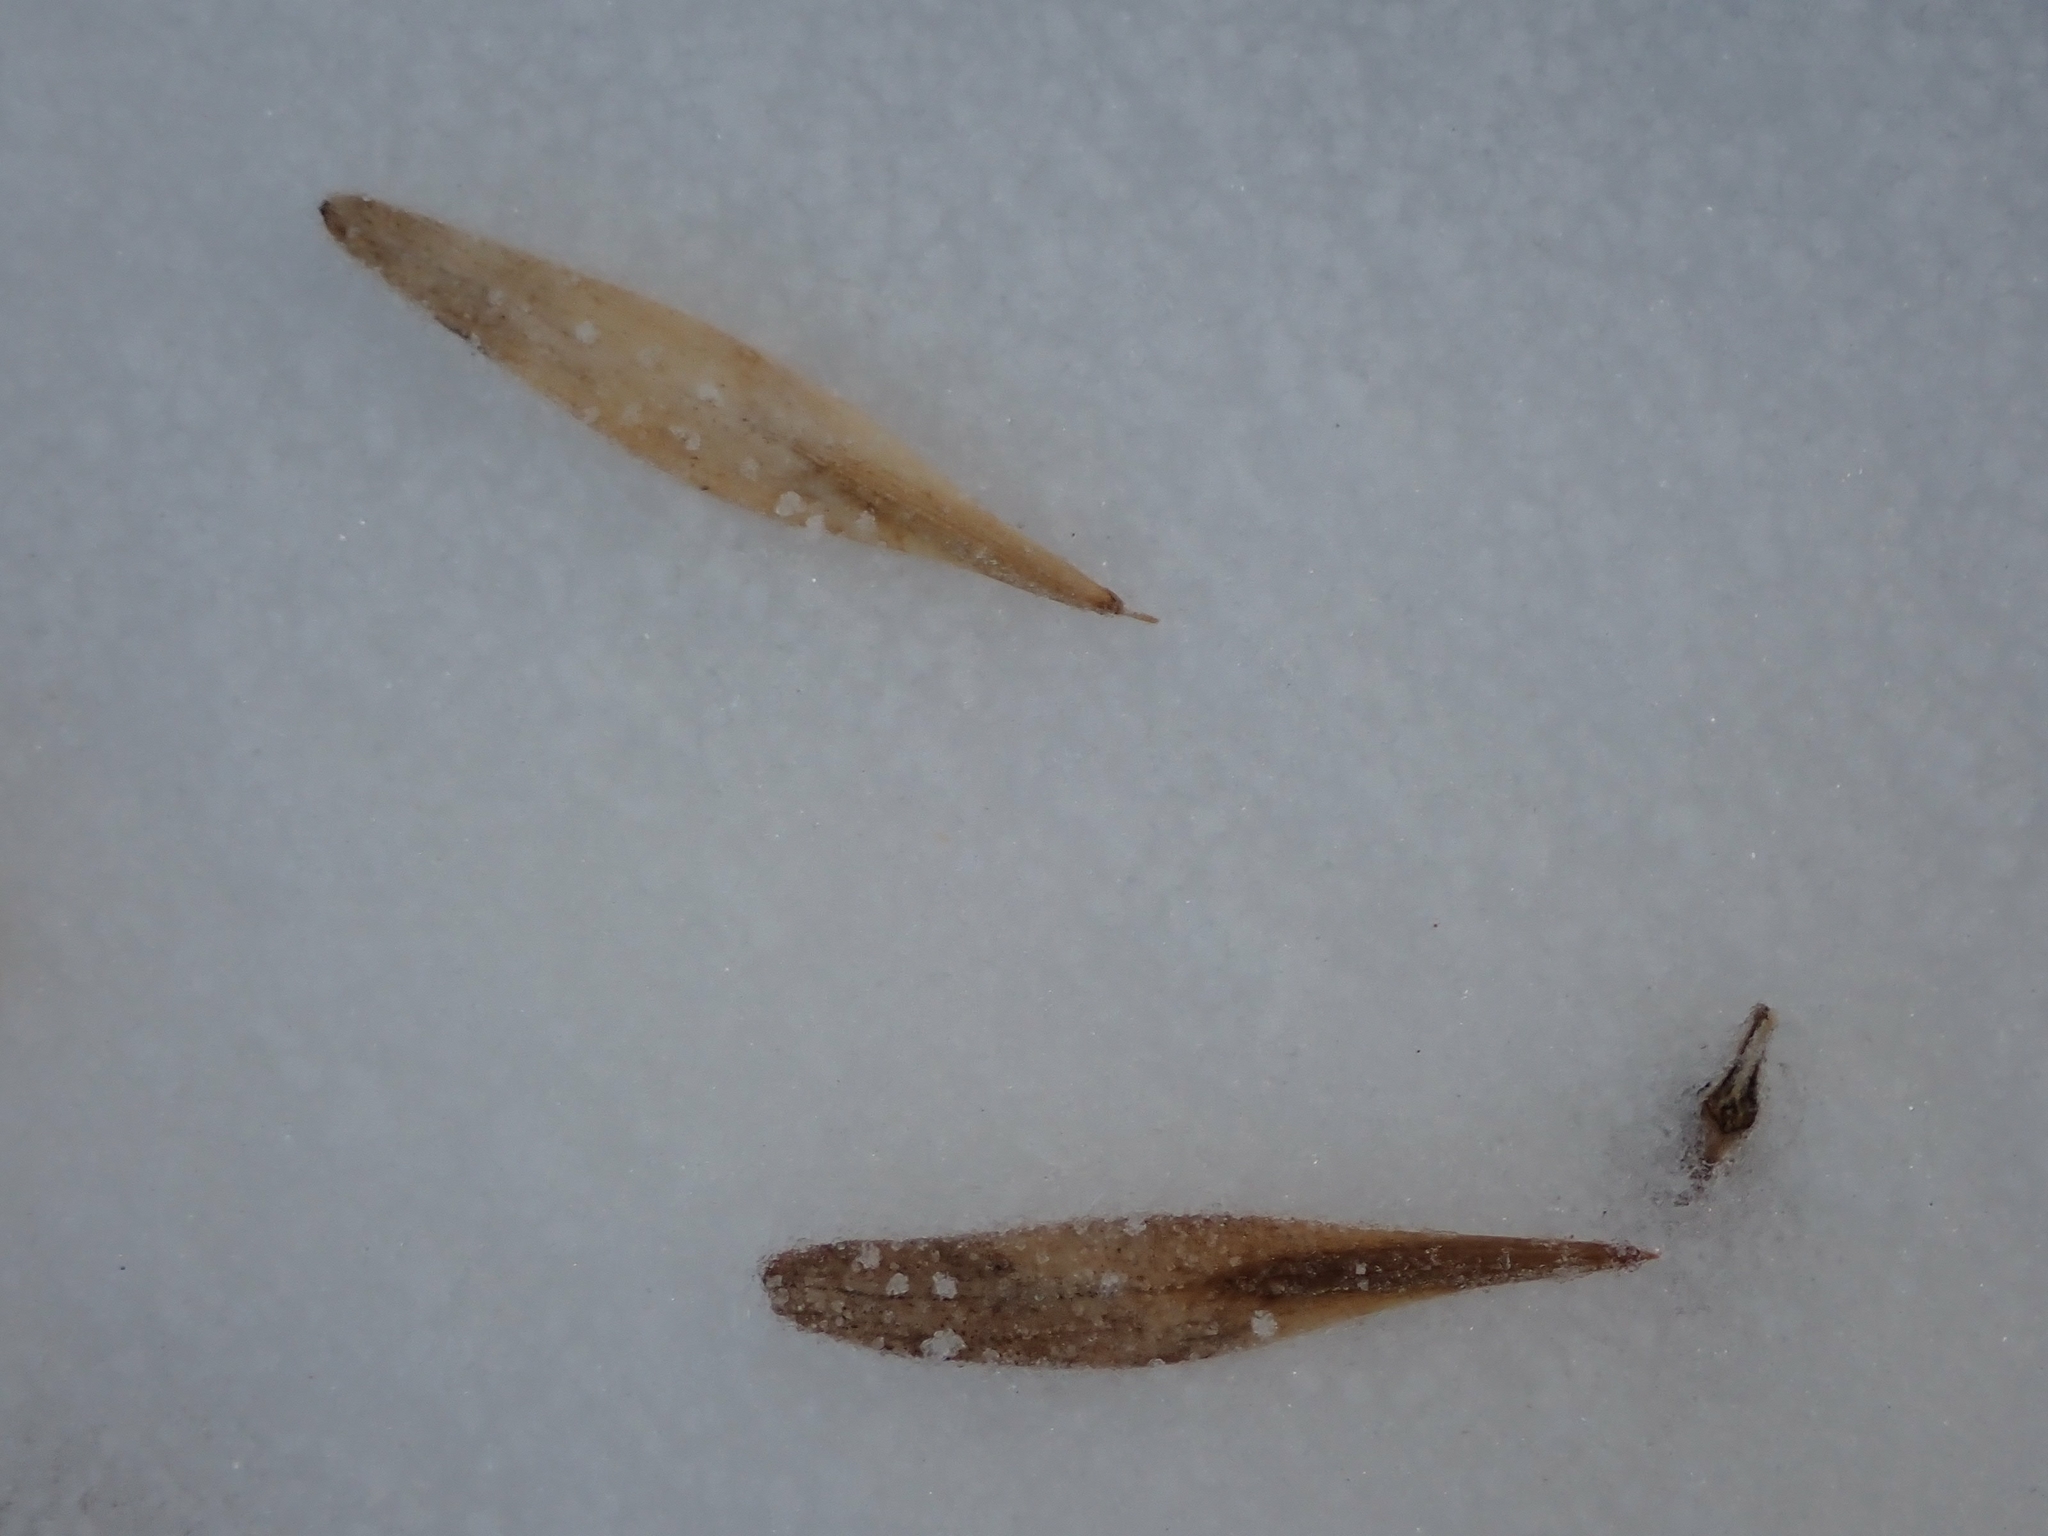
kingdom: Plantae
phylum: Tracheophyta
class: Magnoliopsida
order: Lamiales
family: Oleaceae
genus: Fraxinus
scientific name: Fraxinus pennsylvanica
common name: Green ash
